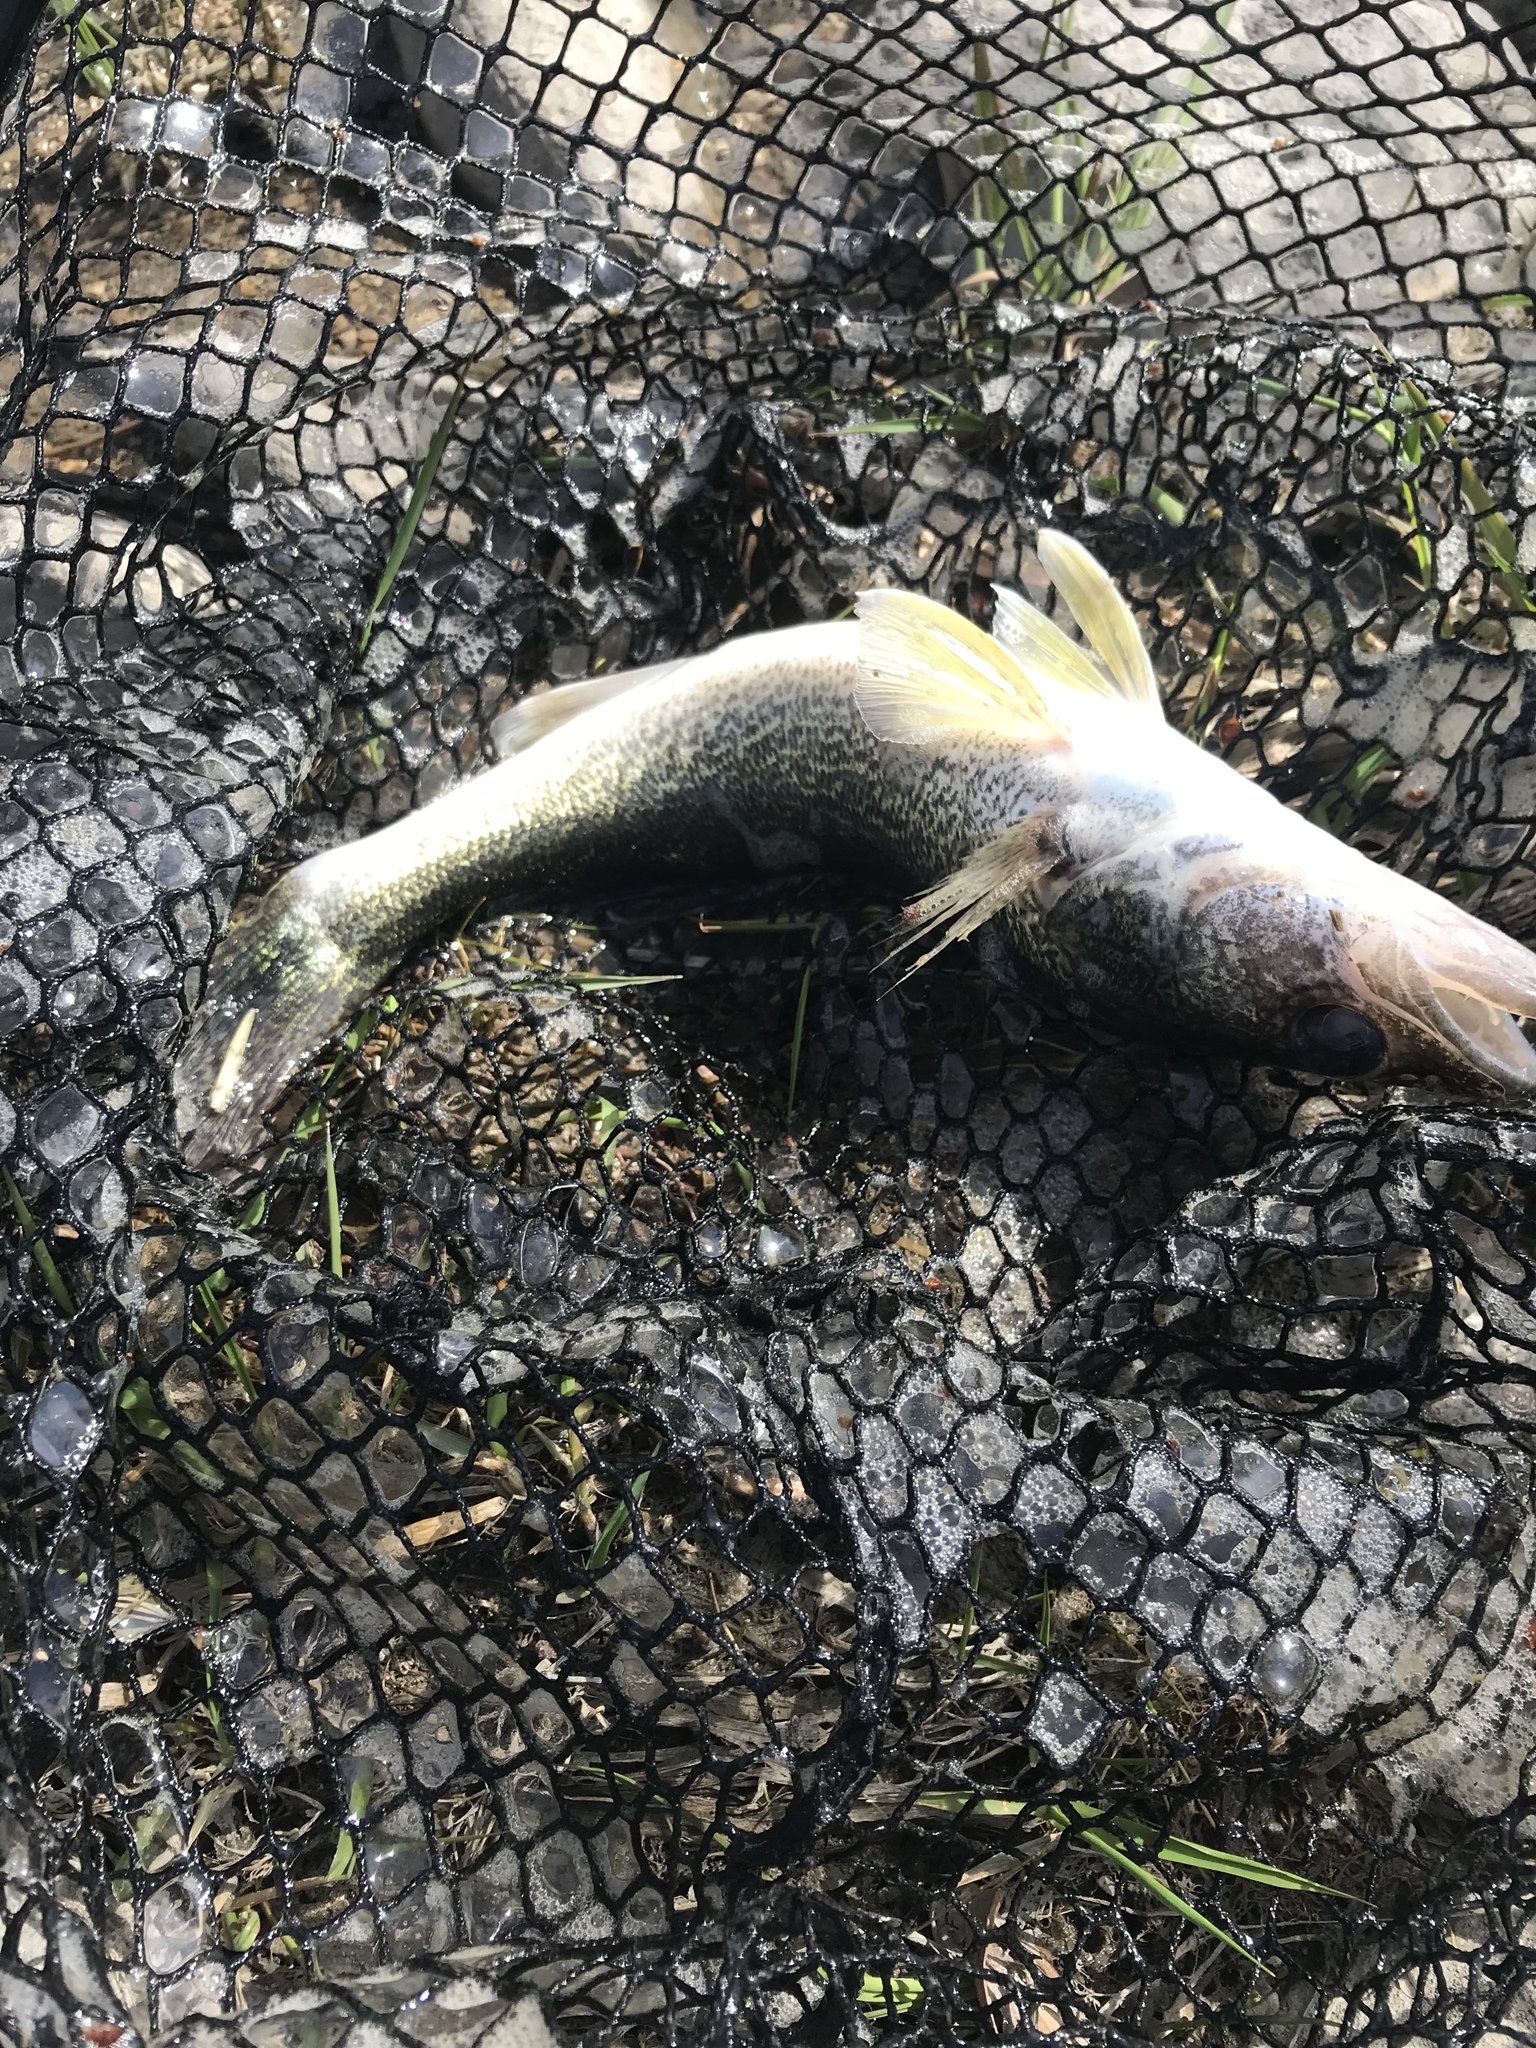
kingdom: Animalia
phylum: Chordata
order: Perciformes
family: Percidae
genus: Sander
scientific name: Sander vitreus
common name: Walleye
